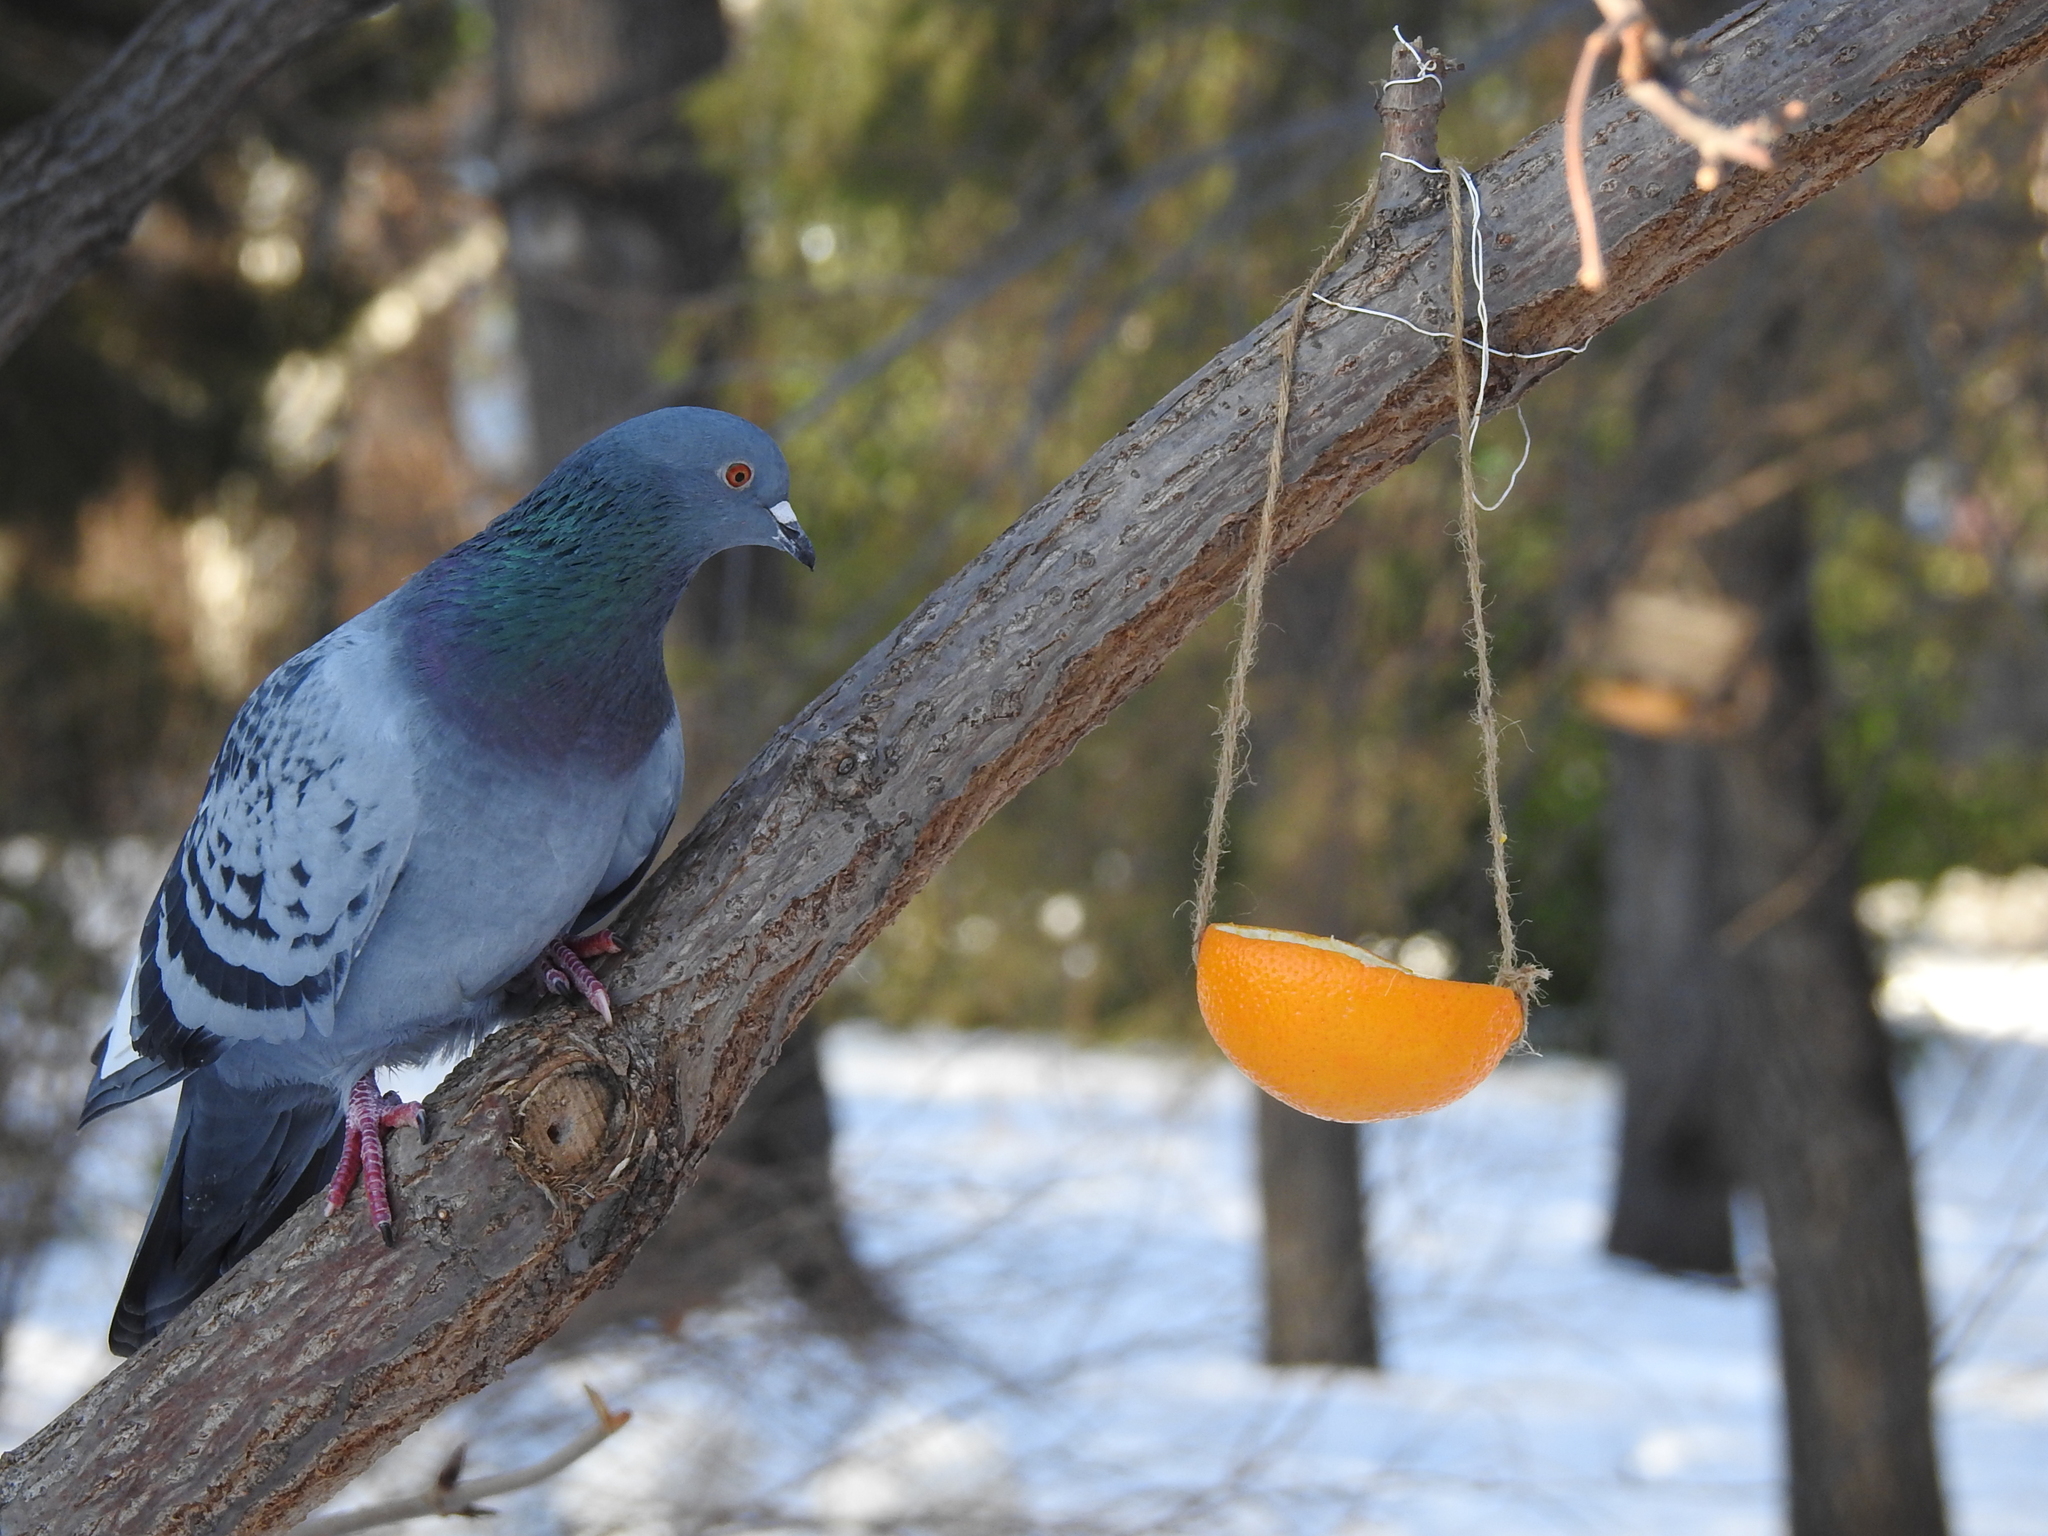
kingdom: Animalia
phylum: Chordata
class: Aves
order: Columbiformes
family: Columbidae
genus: Columba
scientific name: Columba livia
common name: Rock pigeon
